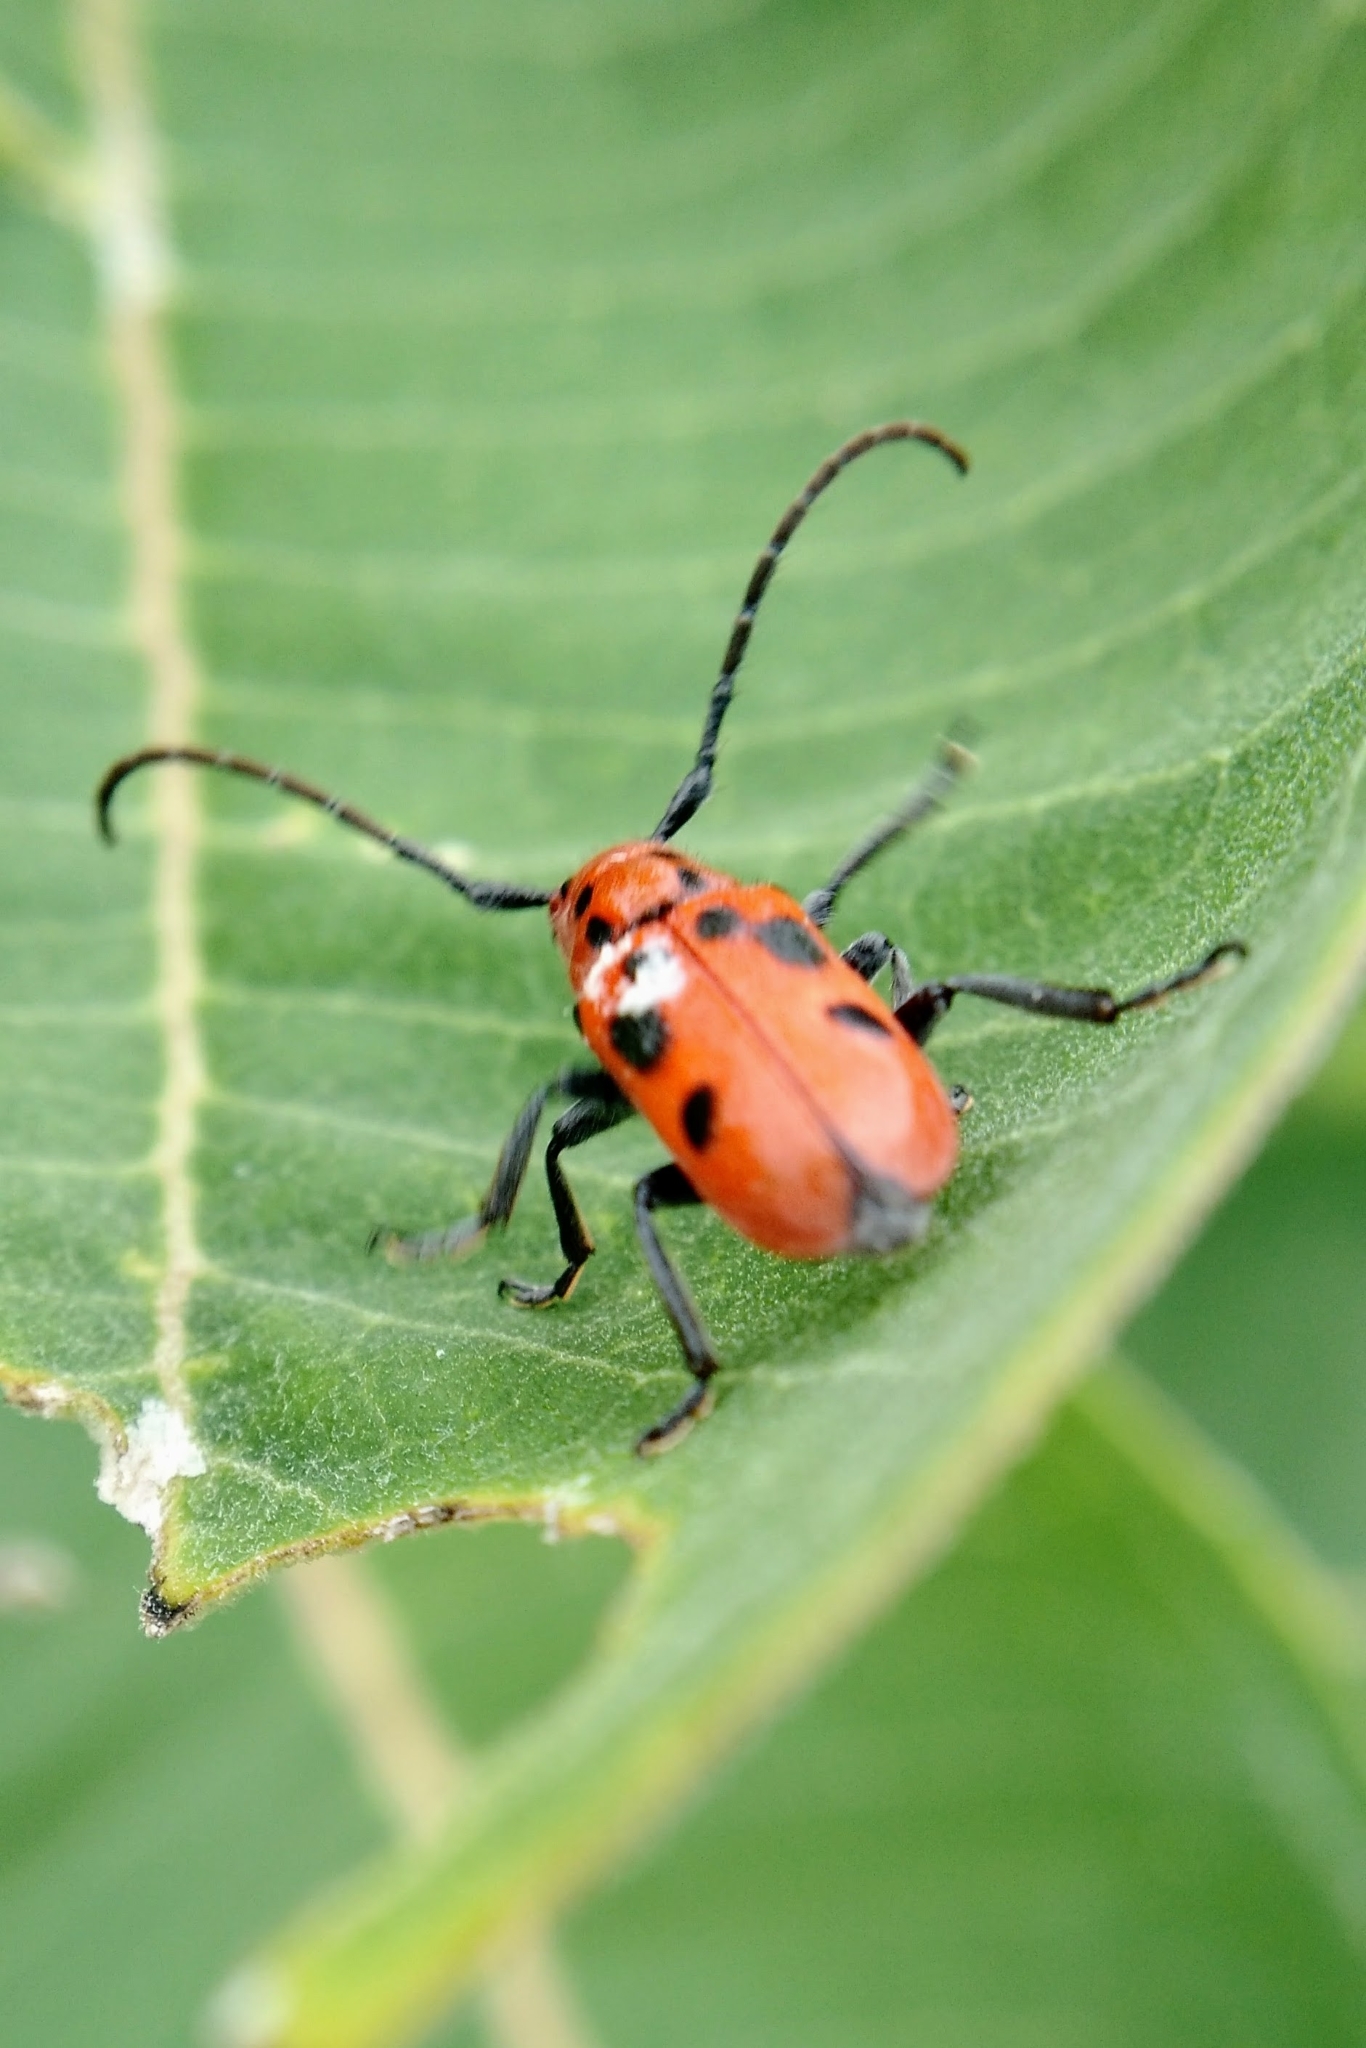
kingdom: Animalia
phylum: Arthropoda
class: Insecta
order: Coleoptera
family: Cerambycidae
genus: Tetraopes
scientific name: Tetraopes tetrophthalmus
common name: Red milkweed beetle
